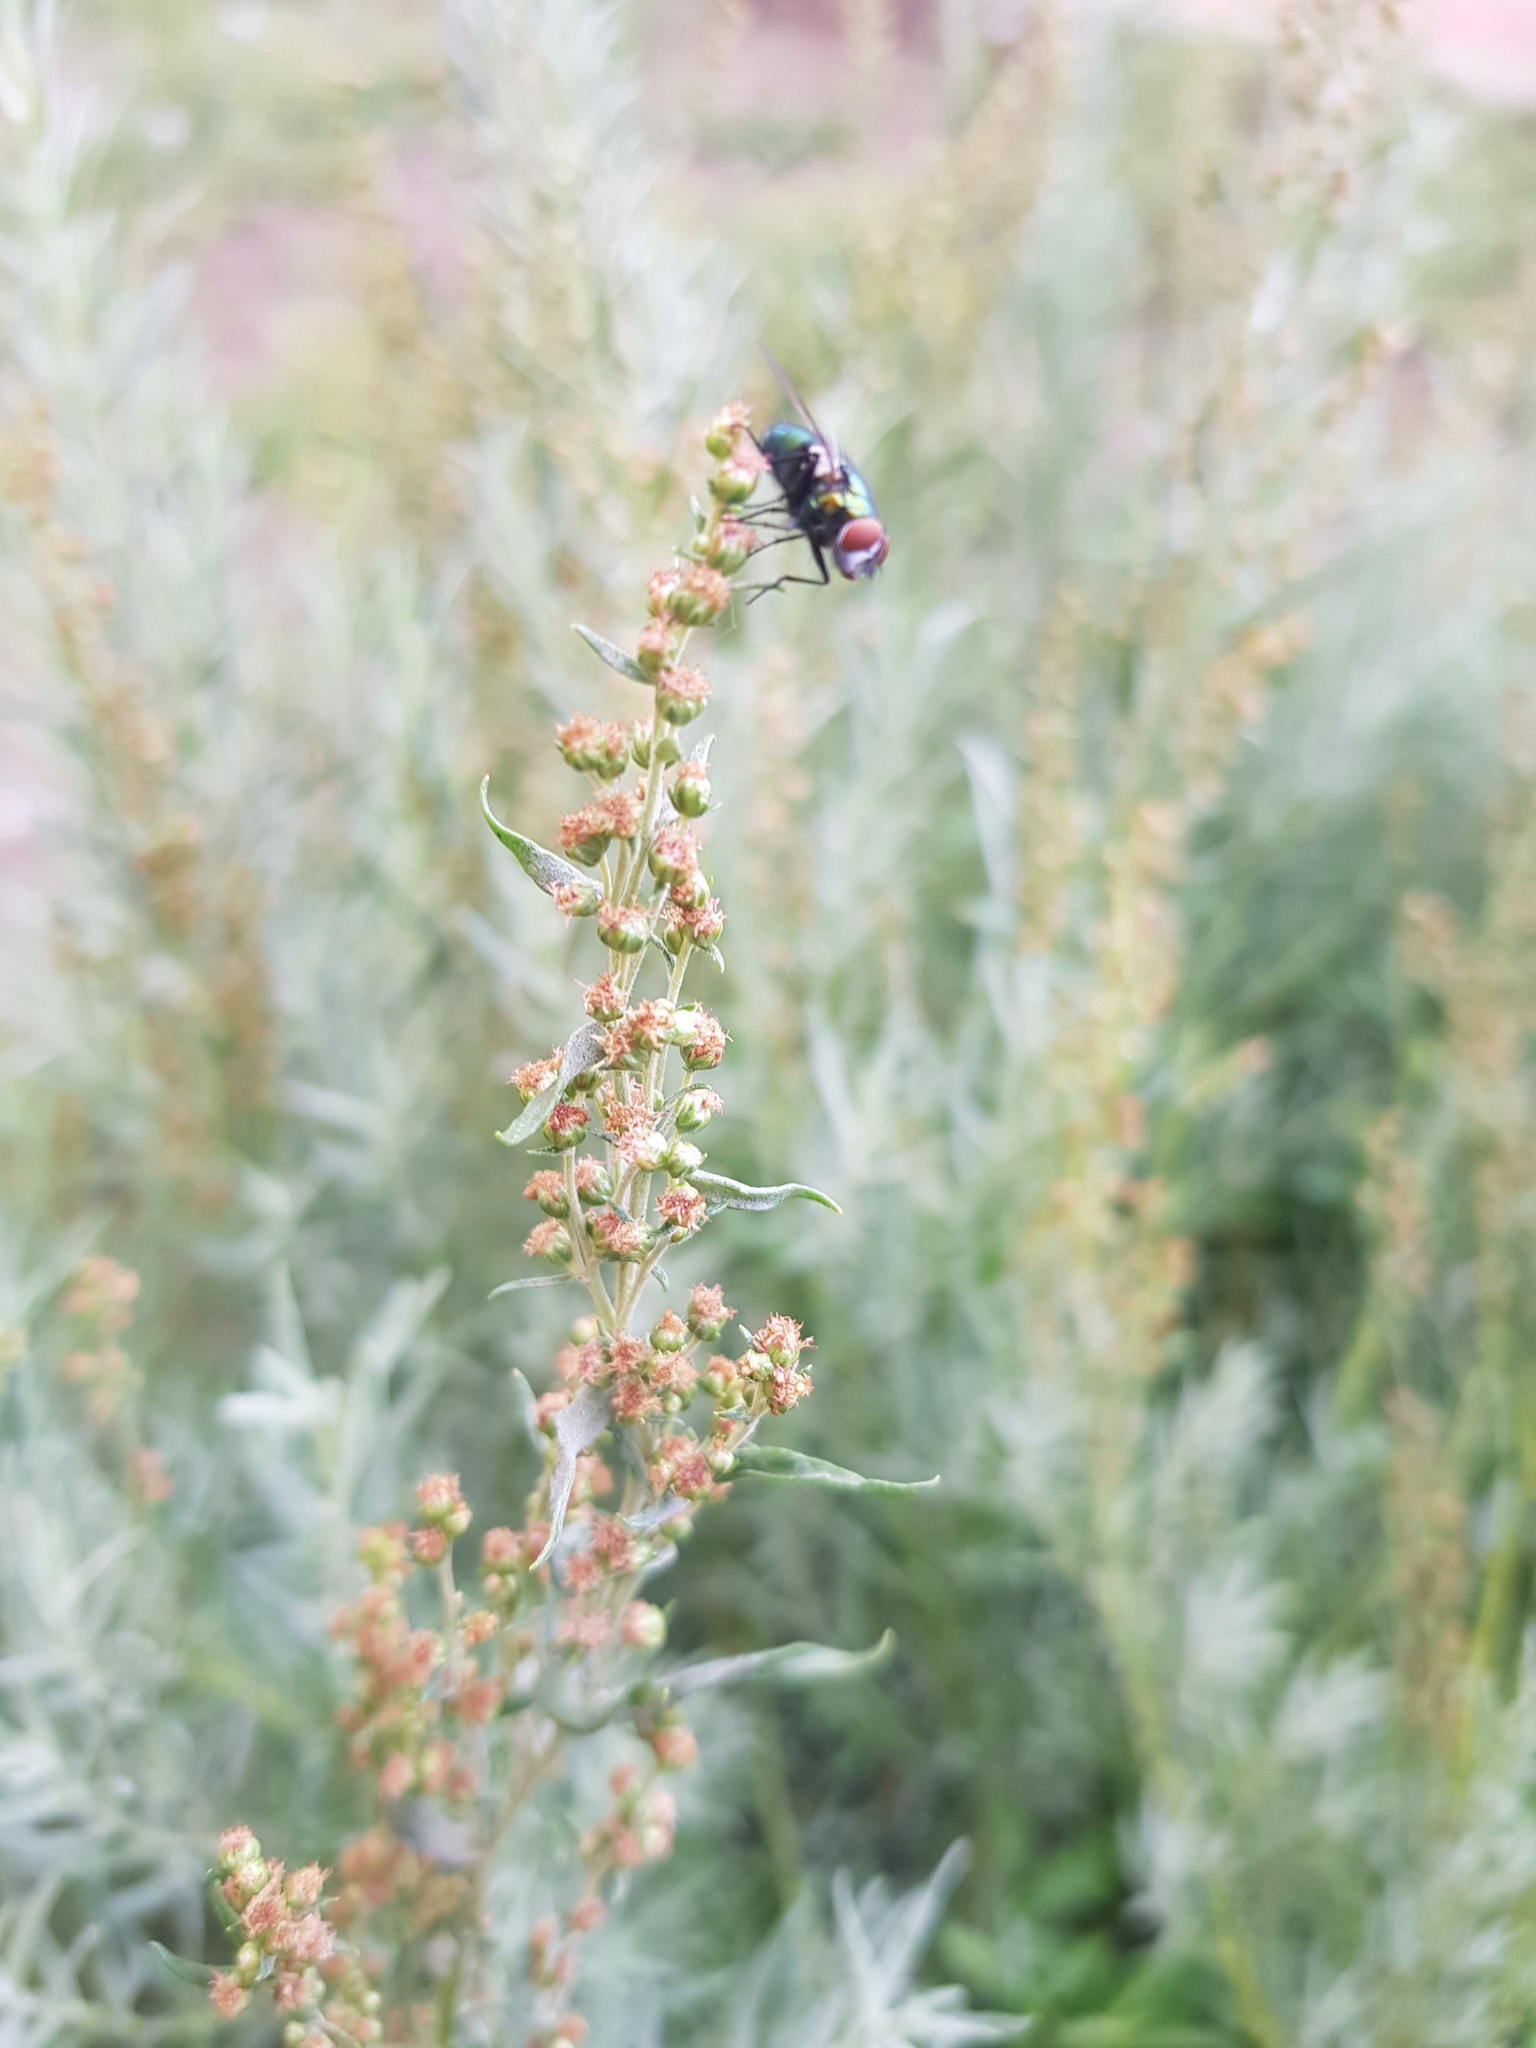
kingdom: Plantae
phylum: Tracheophyta
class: Magnoliopsida
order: Asterales
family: Asteraceae
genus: Artemisia
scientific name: Artemisia glauca
